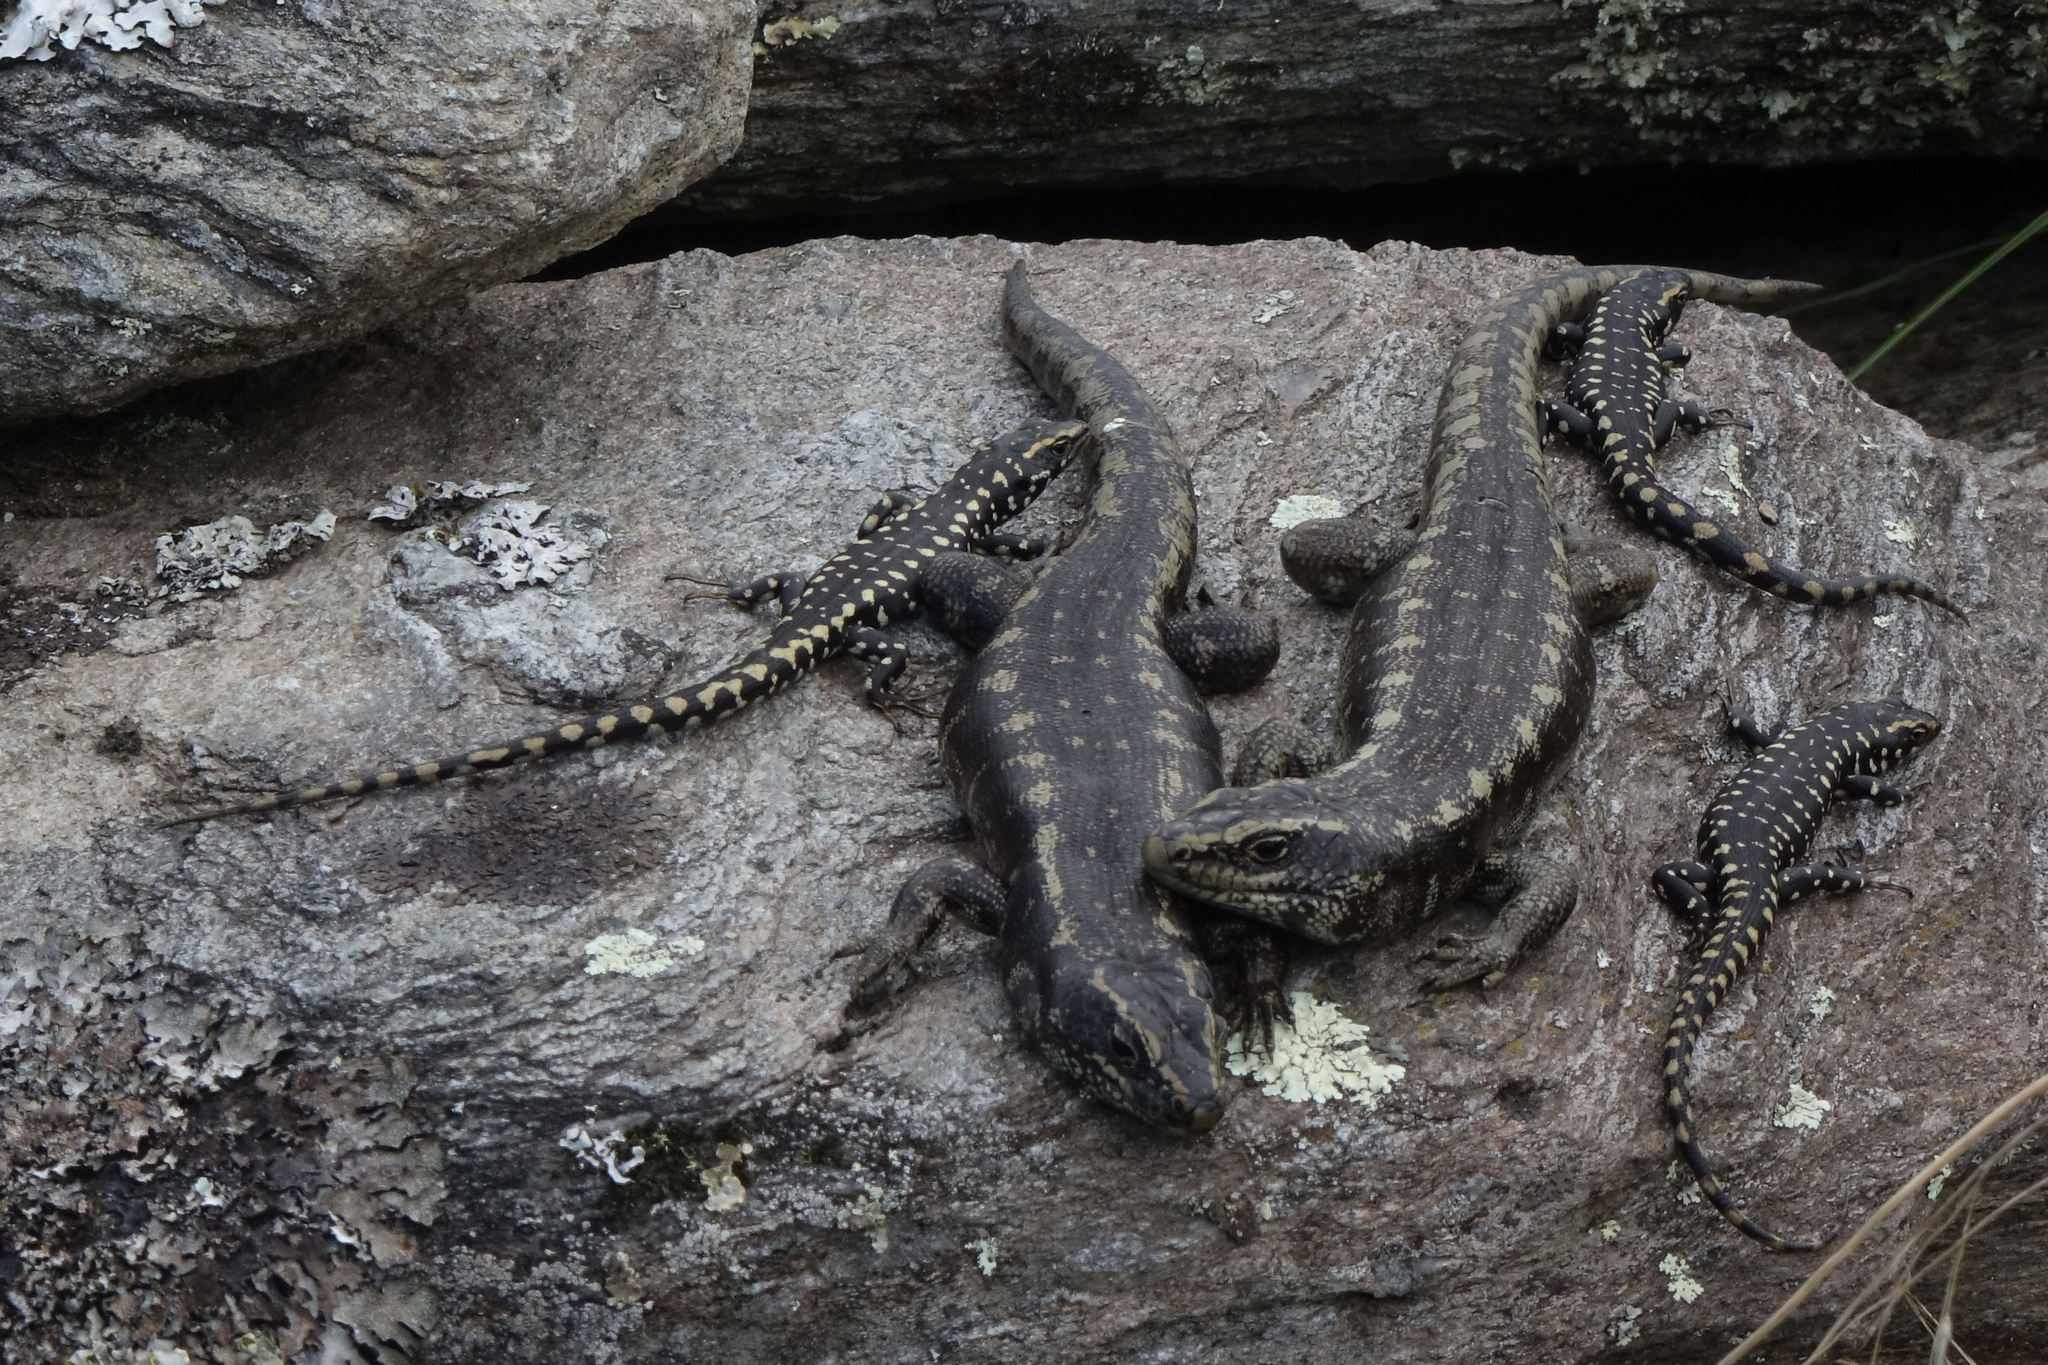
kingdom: Animalia
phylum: Chordata
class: Squamata
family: Scincidae
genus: Oligosoma
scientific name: Oligosoma otagense
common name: Otago skink
